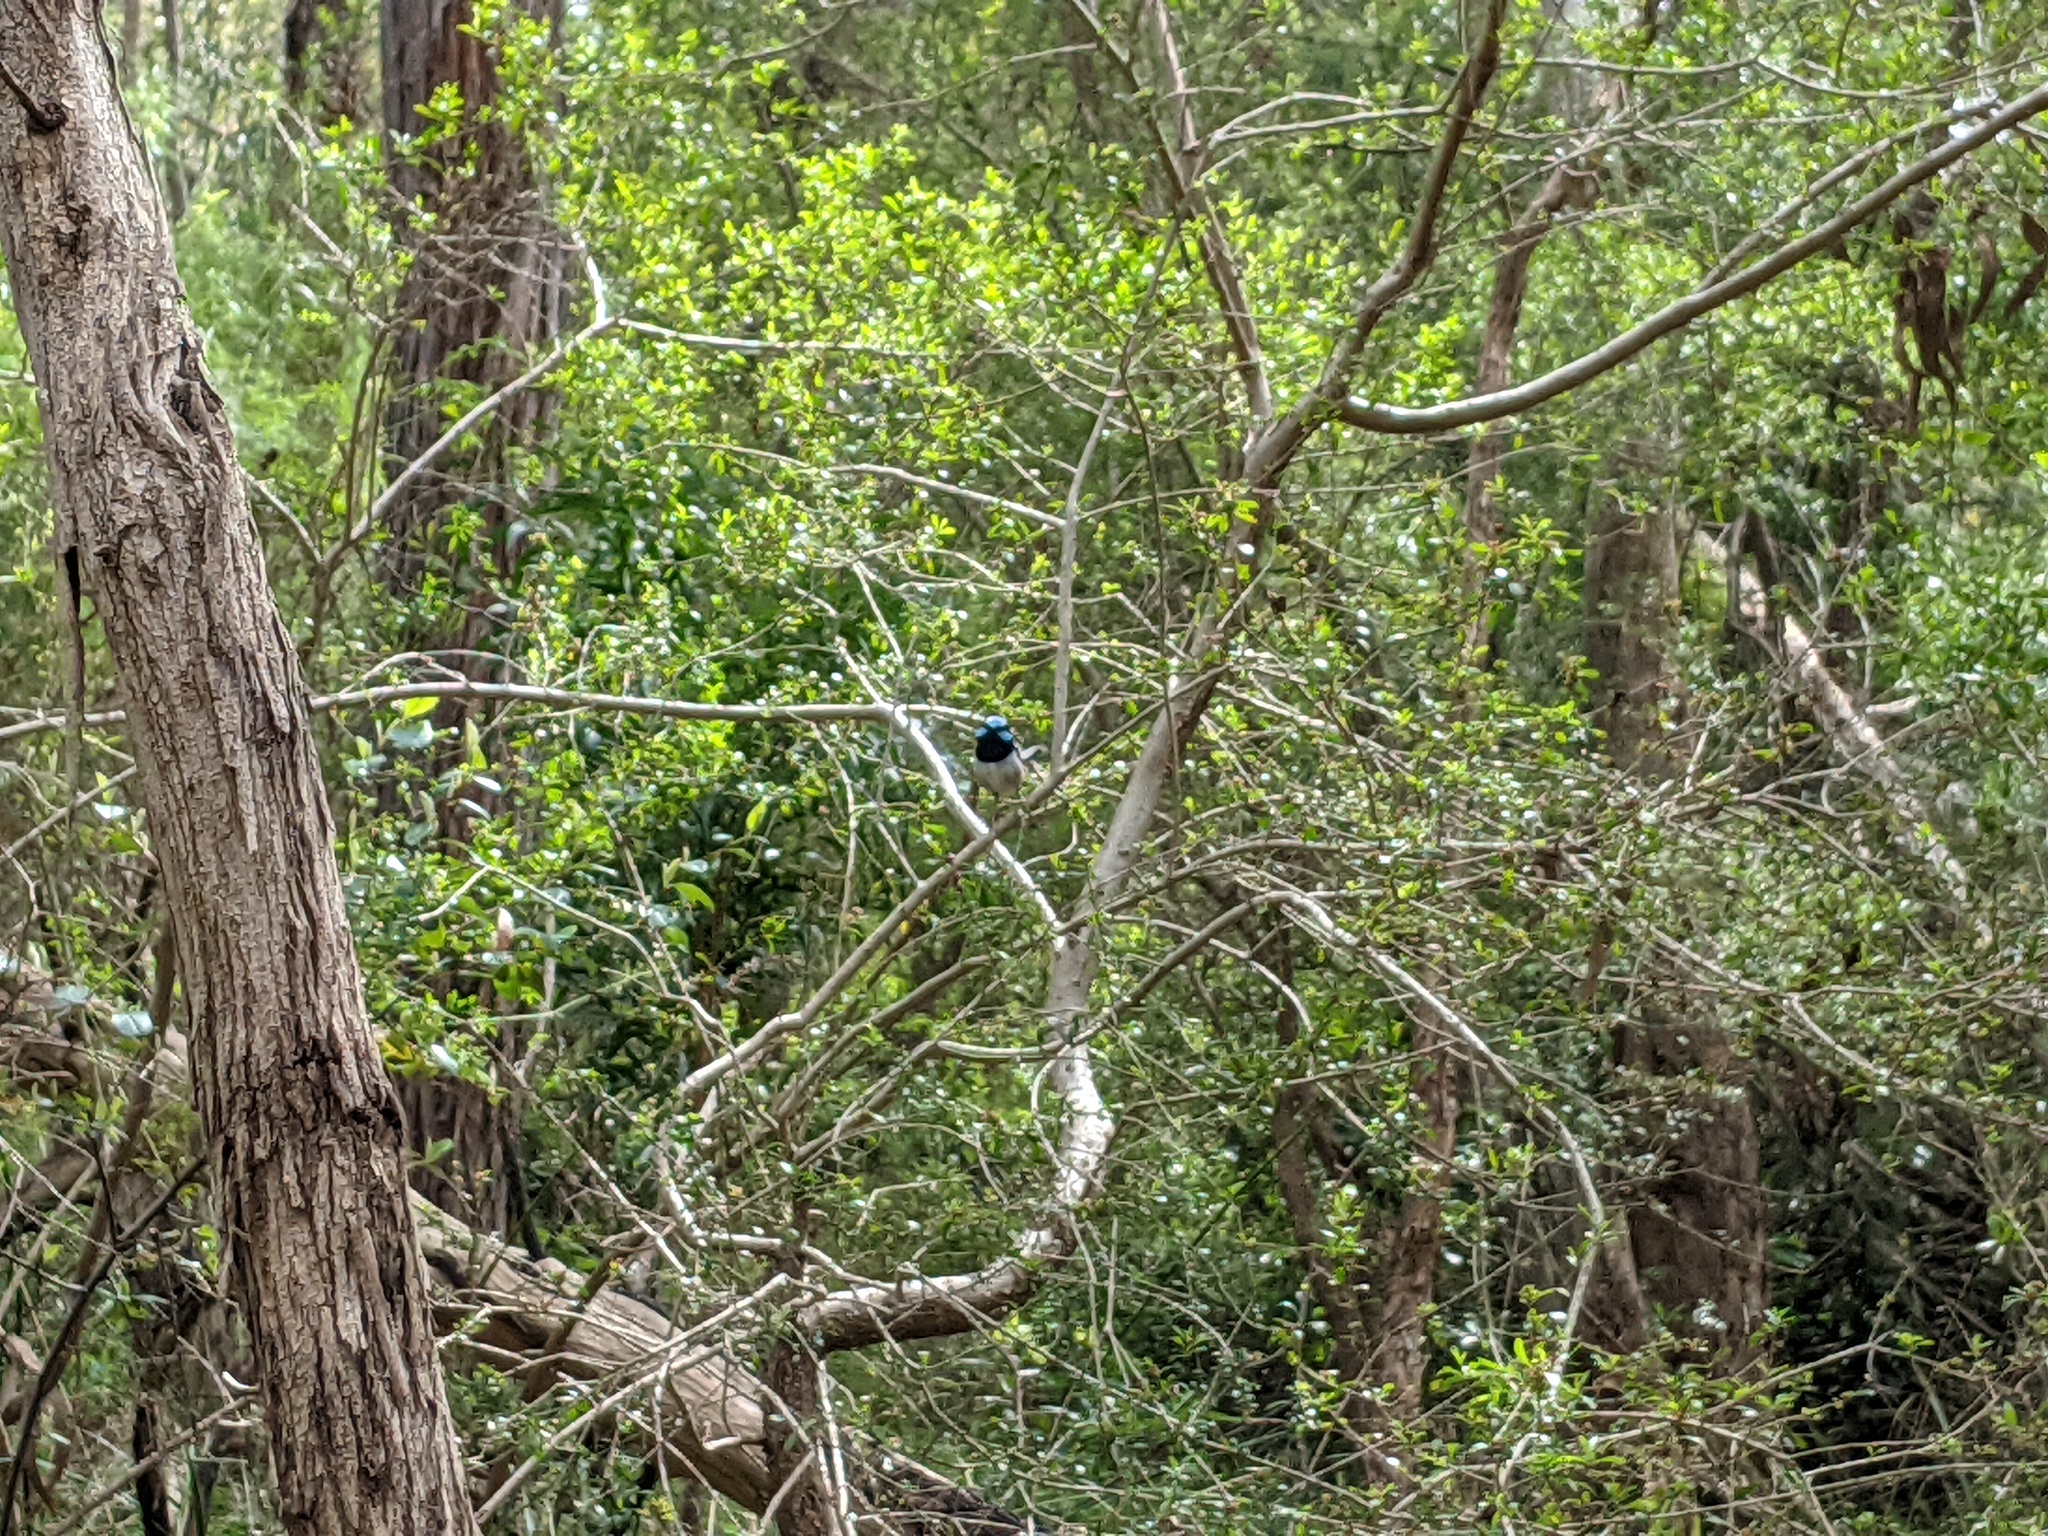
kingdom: Animalia
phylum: Chordata
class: Aves
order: Passeriformes
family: Maluridae
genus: Malurus
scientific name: Malurus cyaneus
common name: Superb fairywren
